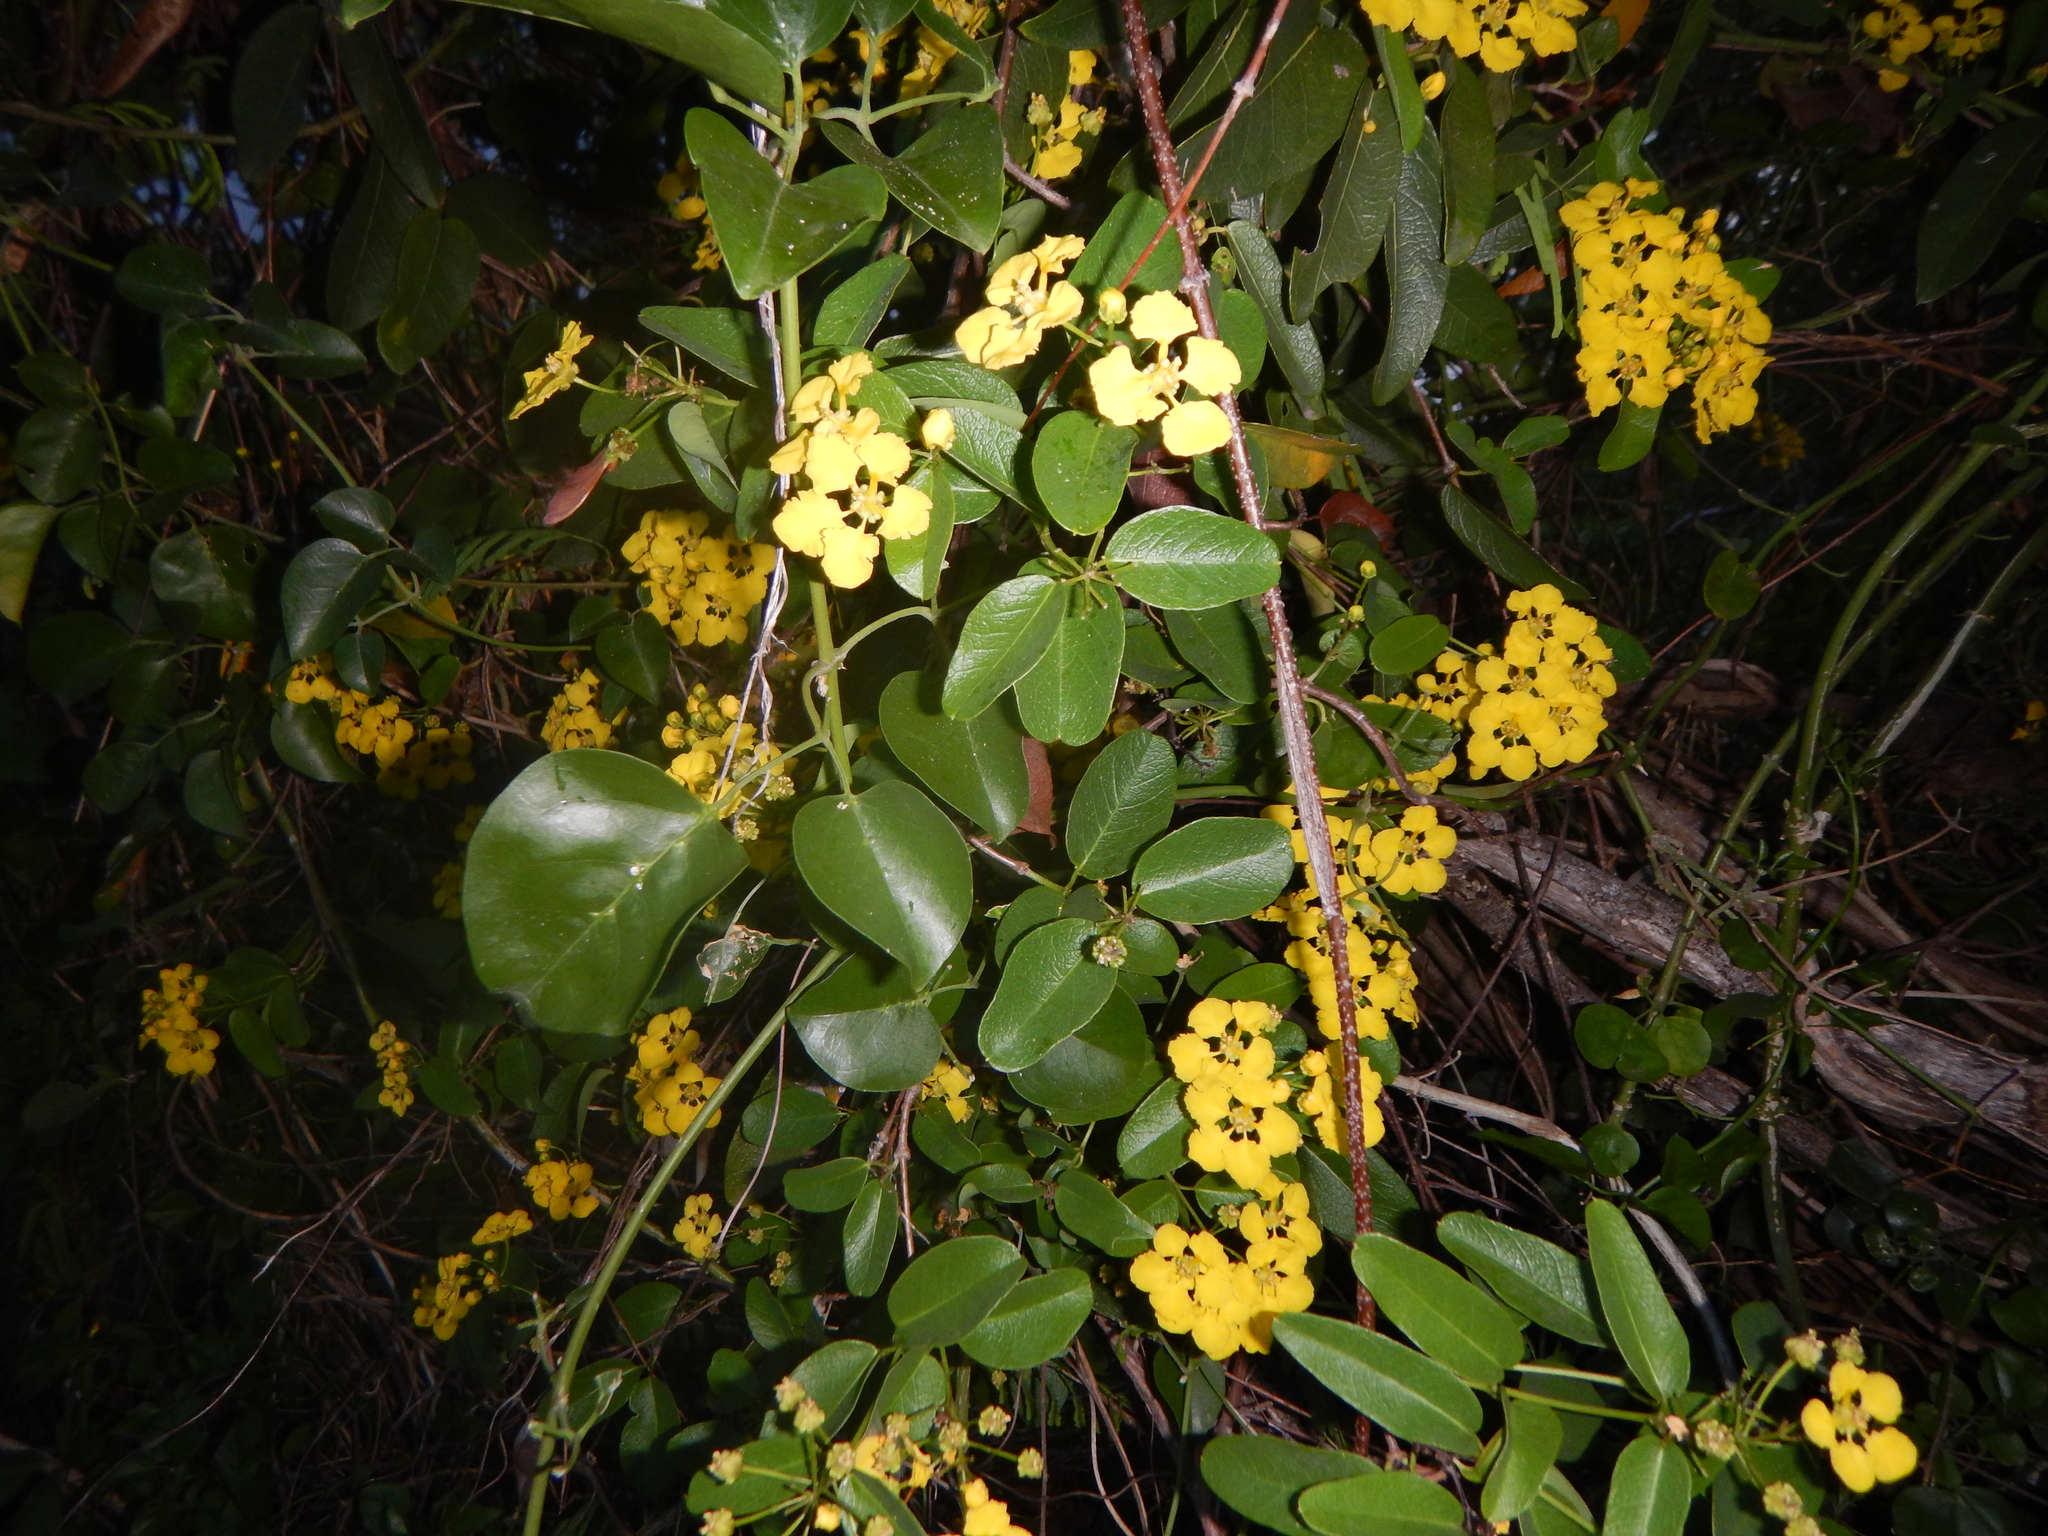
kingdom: Plantae
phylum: Tracheophyta
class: Magnoliopsida
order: Malpighiales
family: Malpighiaceae
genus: Stigmaphyllon
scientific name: Stigmaphyllon emarginatum
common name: Monarch amazonvine
